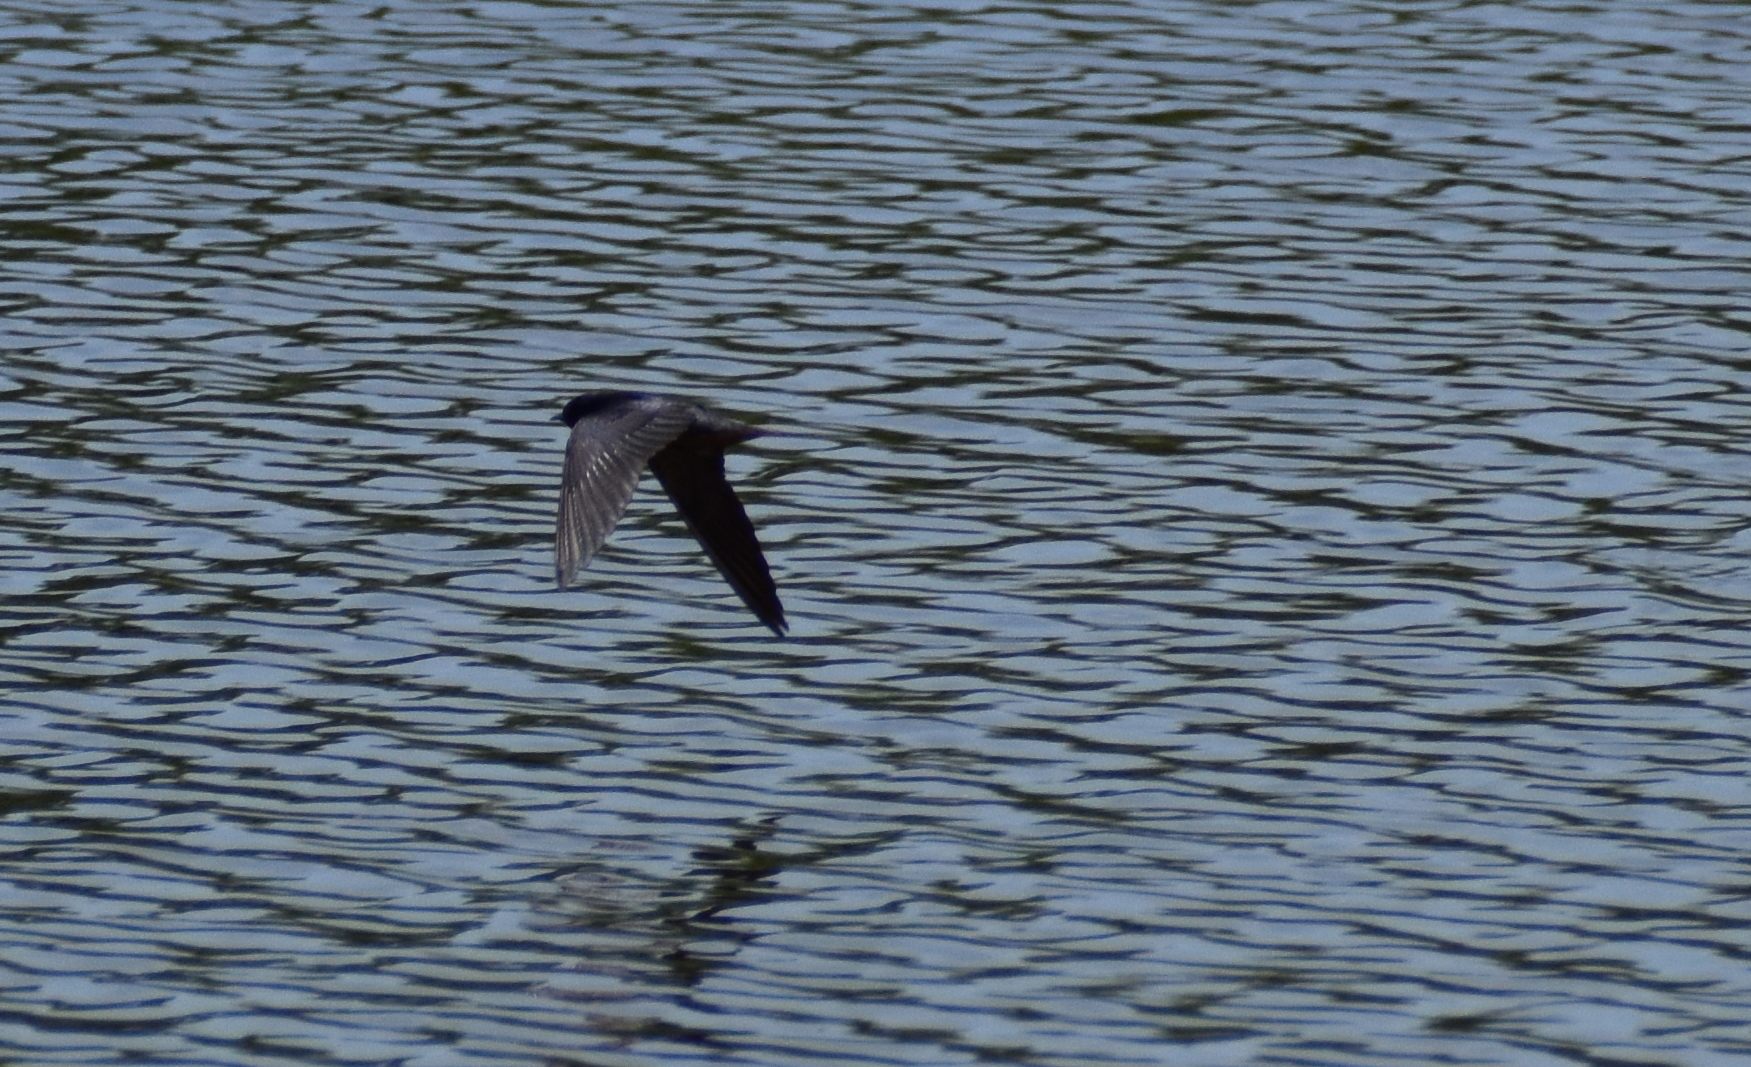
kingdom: Animalia
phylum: Chordata
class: Aves
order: Passeriformes
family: Hirundinidae
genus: Progne
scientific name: Progne subis
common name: Purple martin
